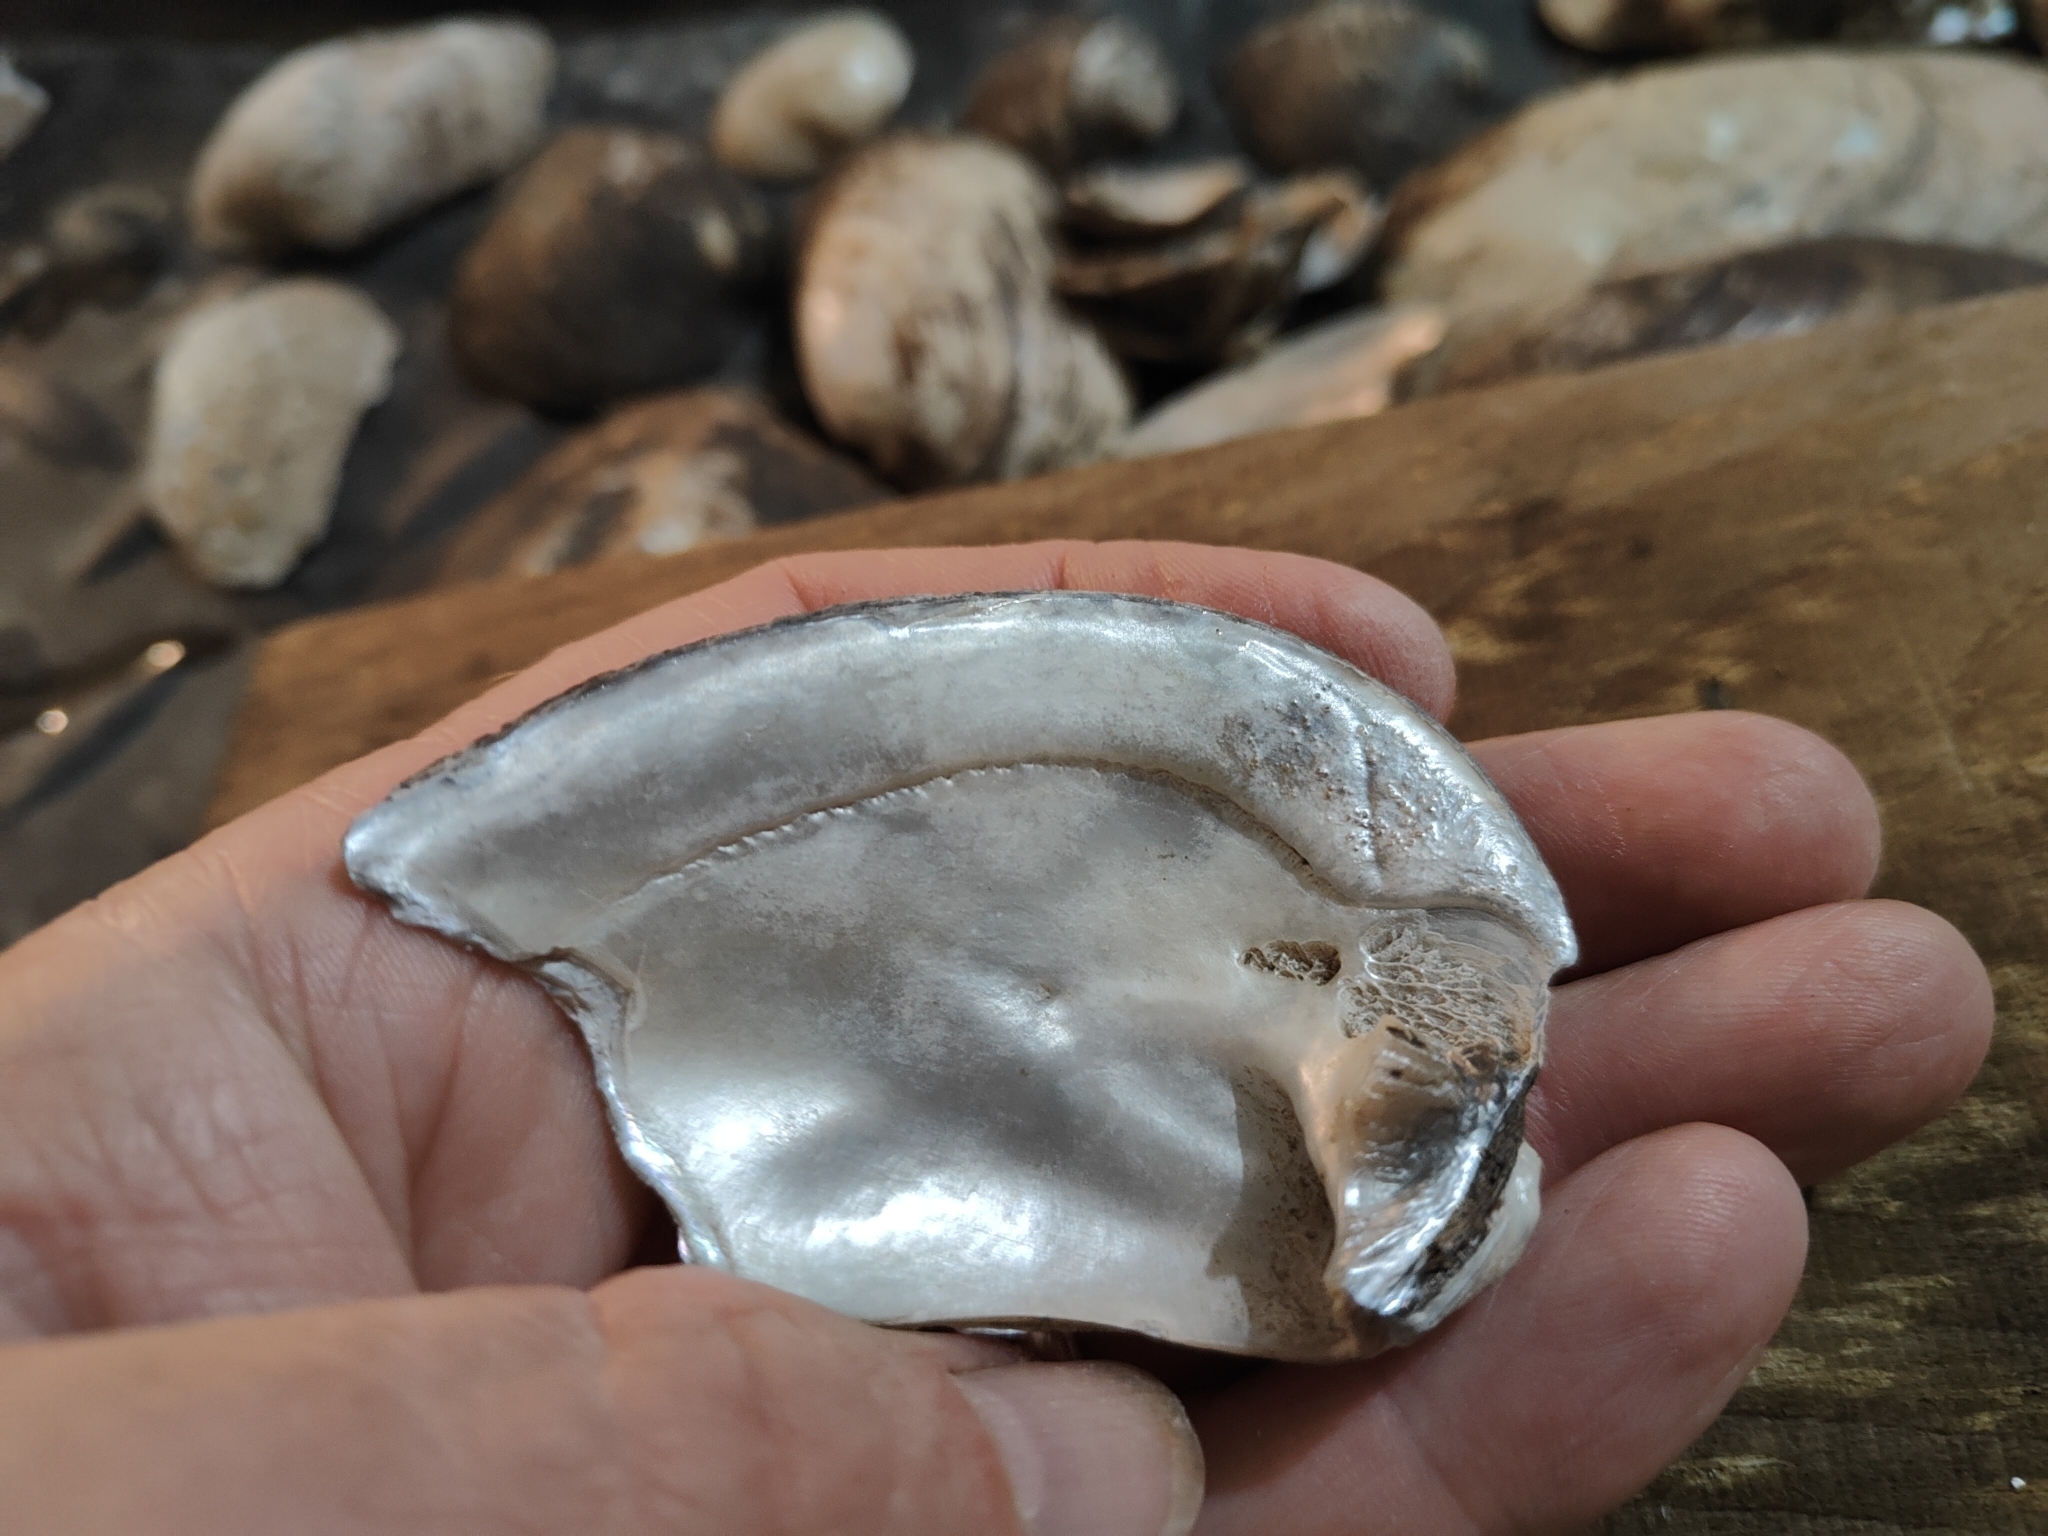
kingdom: Animalia
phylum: Mollusca
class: Bivalvia
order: Unionida
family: Unionidae
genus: Amblema
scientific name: Amblema plicata
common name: Threeridge
